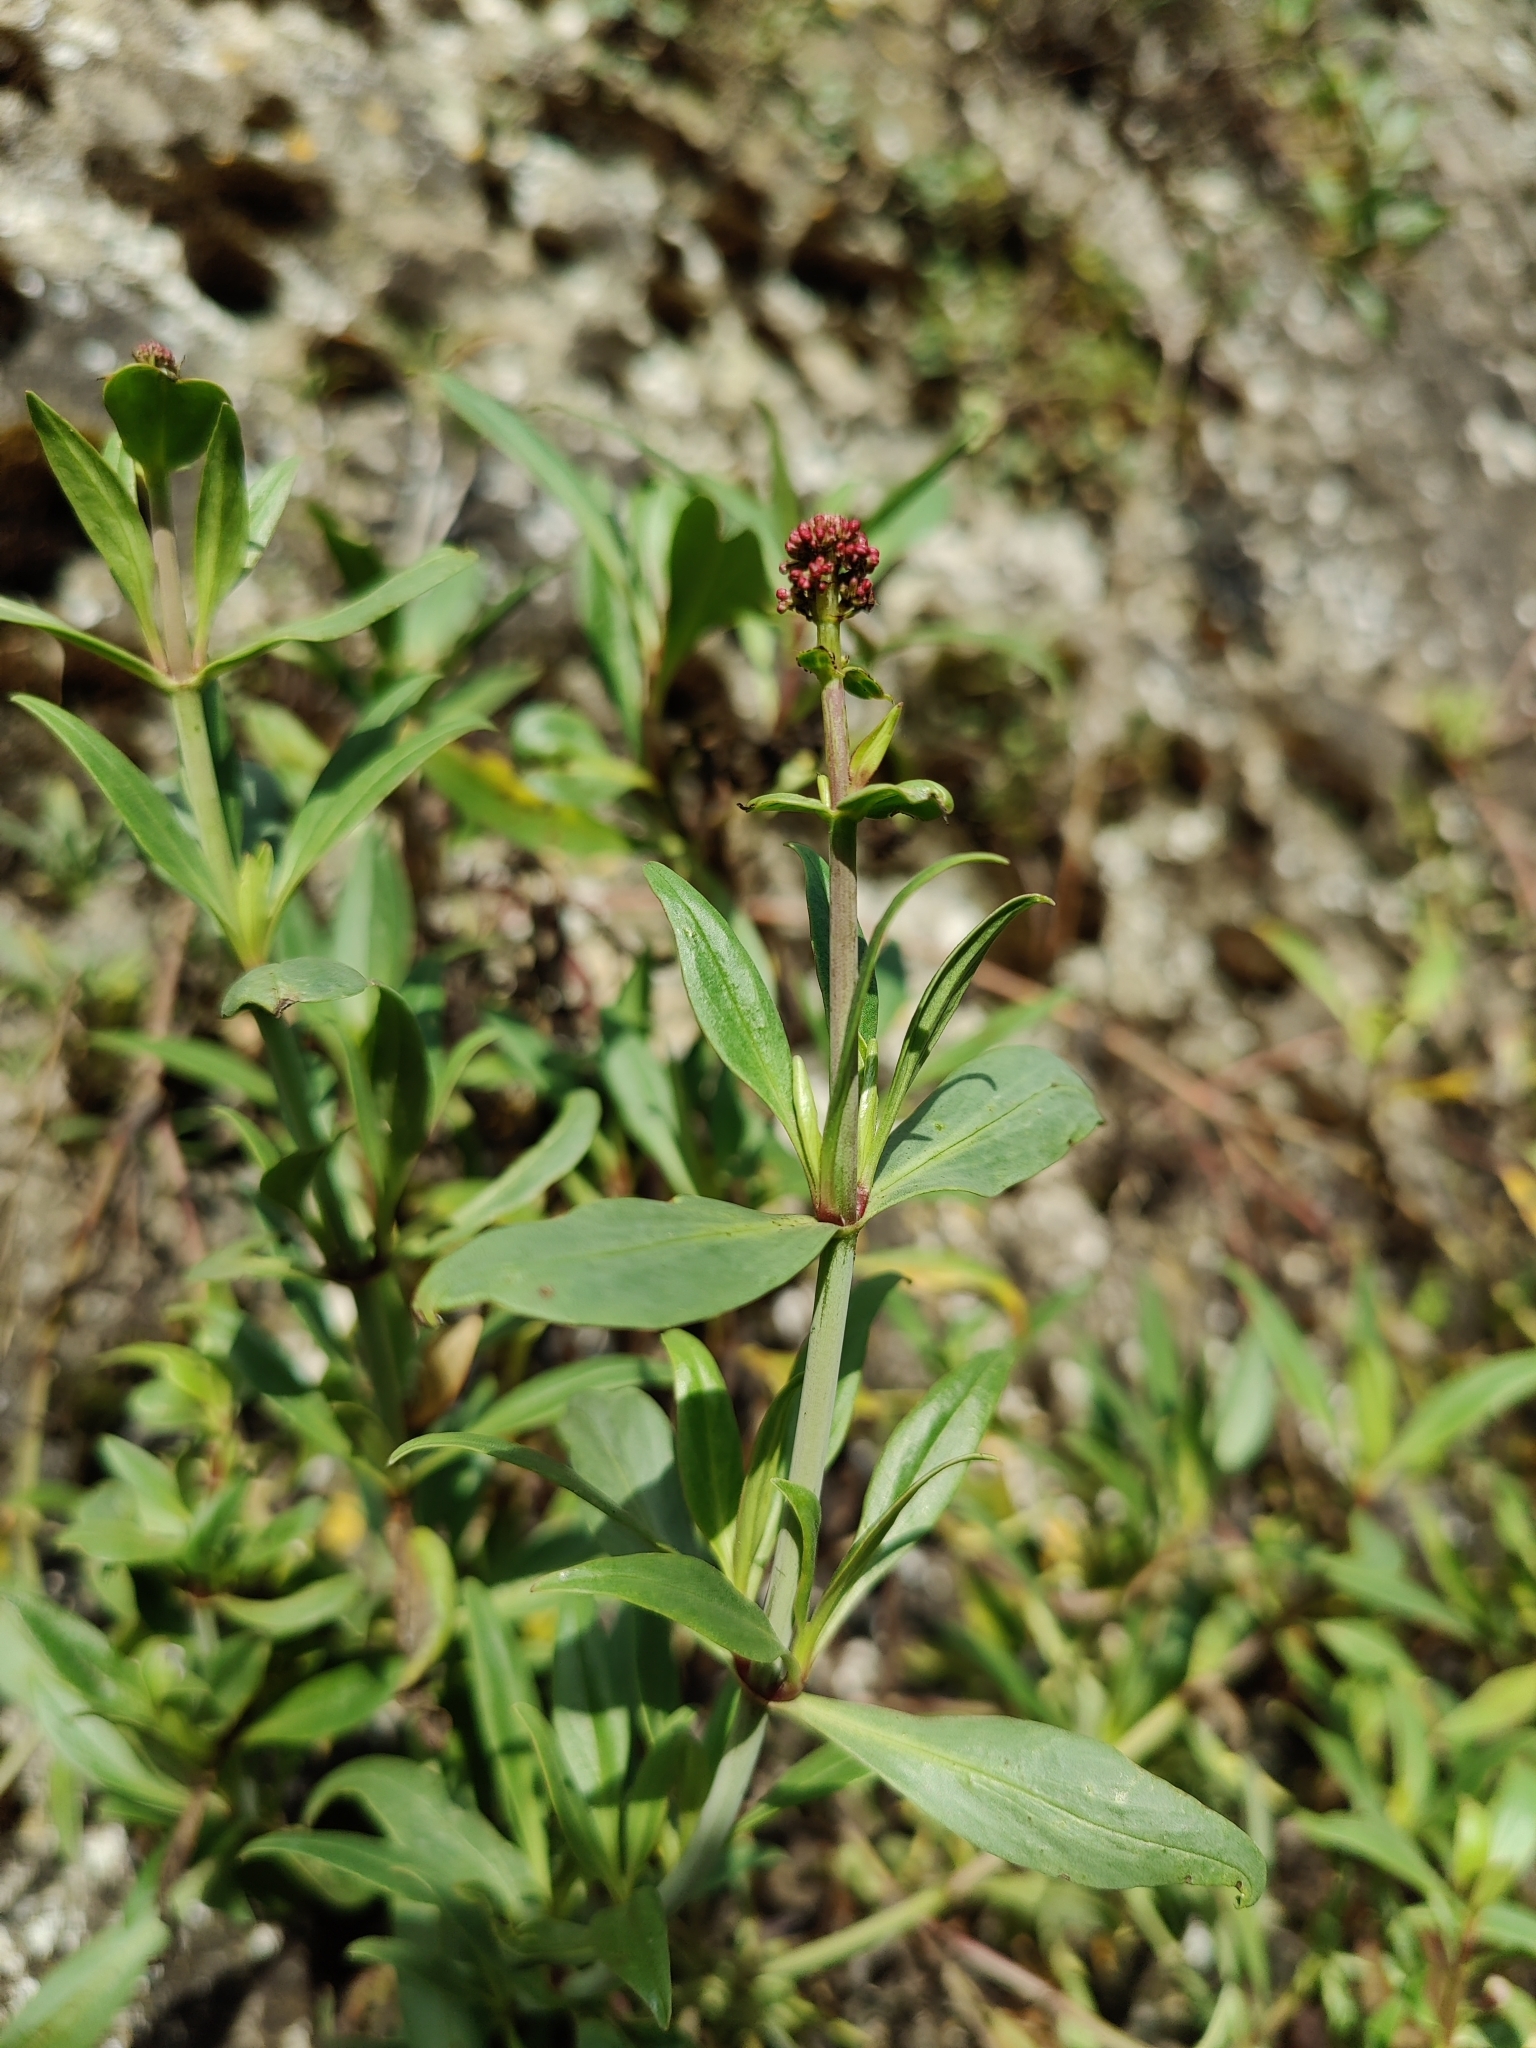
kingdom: Plantae
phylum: Tracheophyta
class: Magnoliopsida
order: Dipsacales
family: Caprifoliaceae
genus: Centranthus
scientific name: Centranthus ruber
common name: Red valerian
